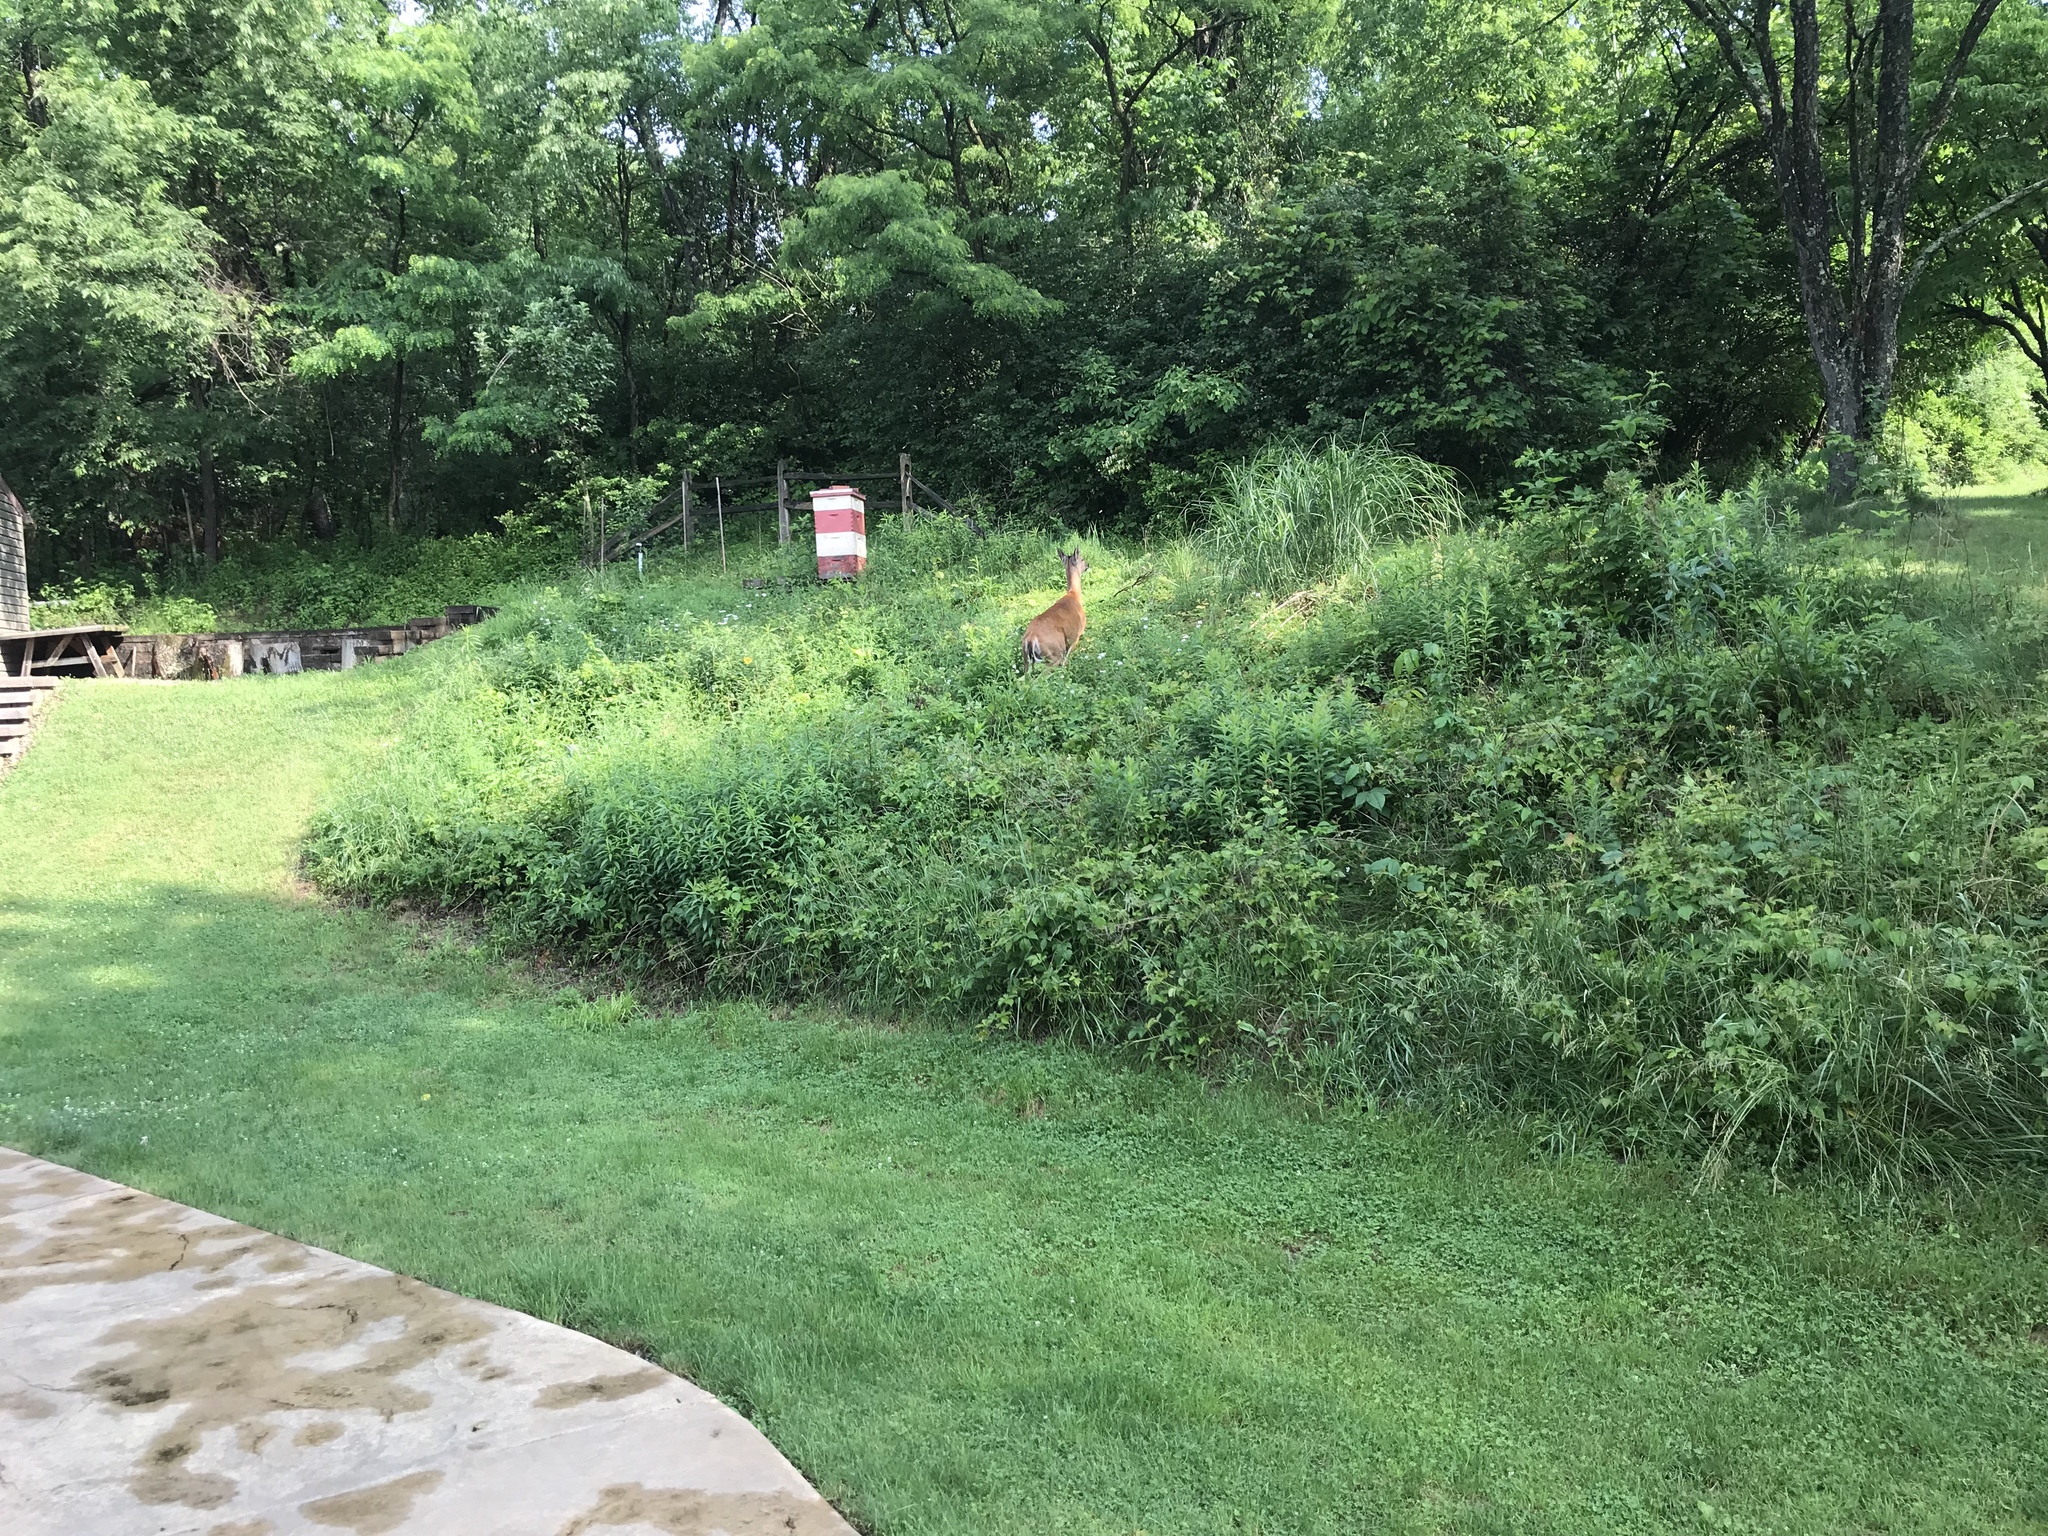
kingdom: Animalia
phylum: Chordata
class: Mammalia
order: Artiodactyla
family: Cervidae
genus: Odocoileus
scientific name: Odocoileus virginianus
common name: White-tailed deer
